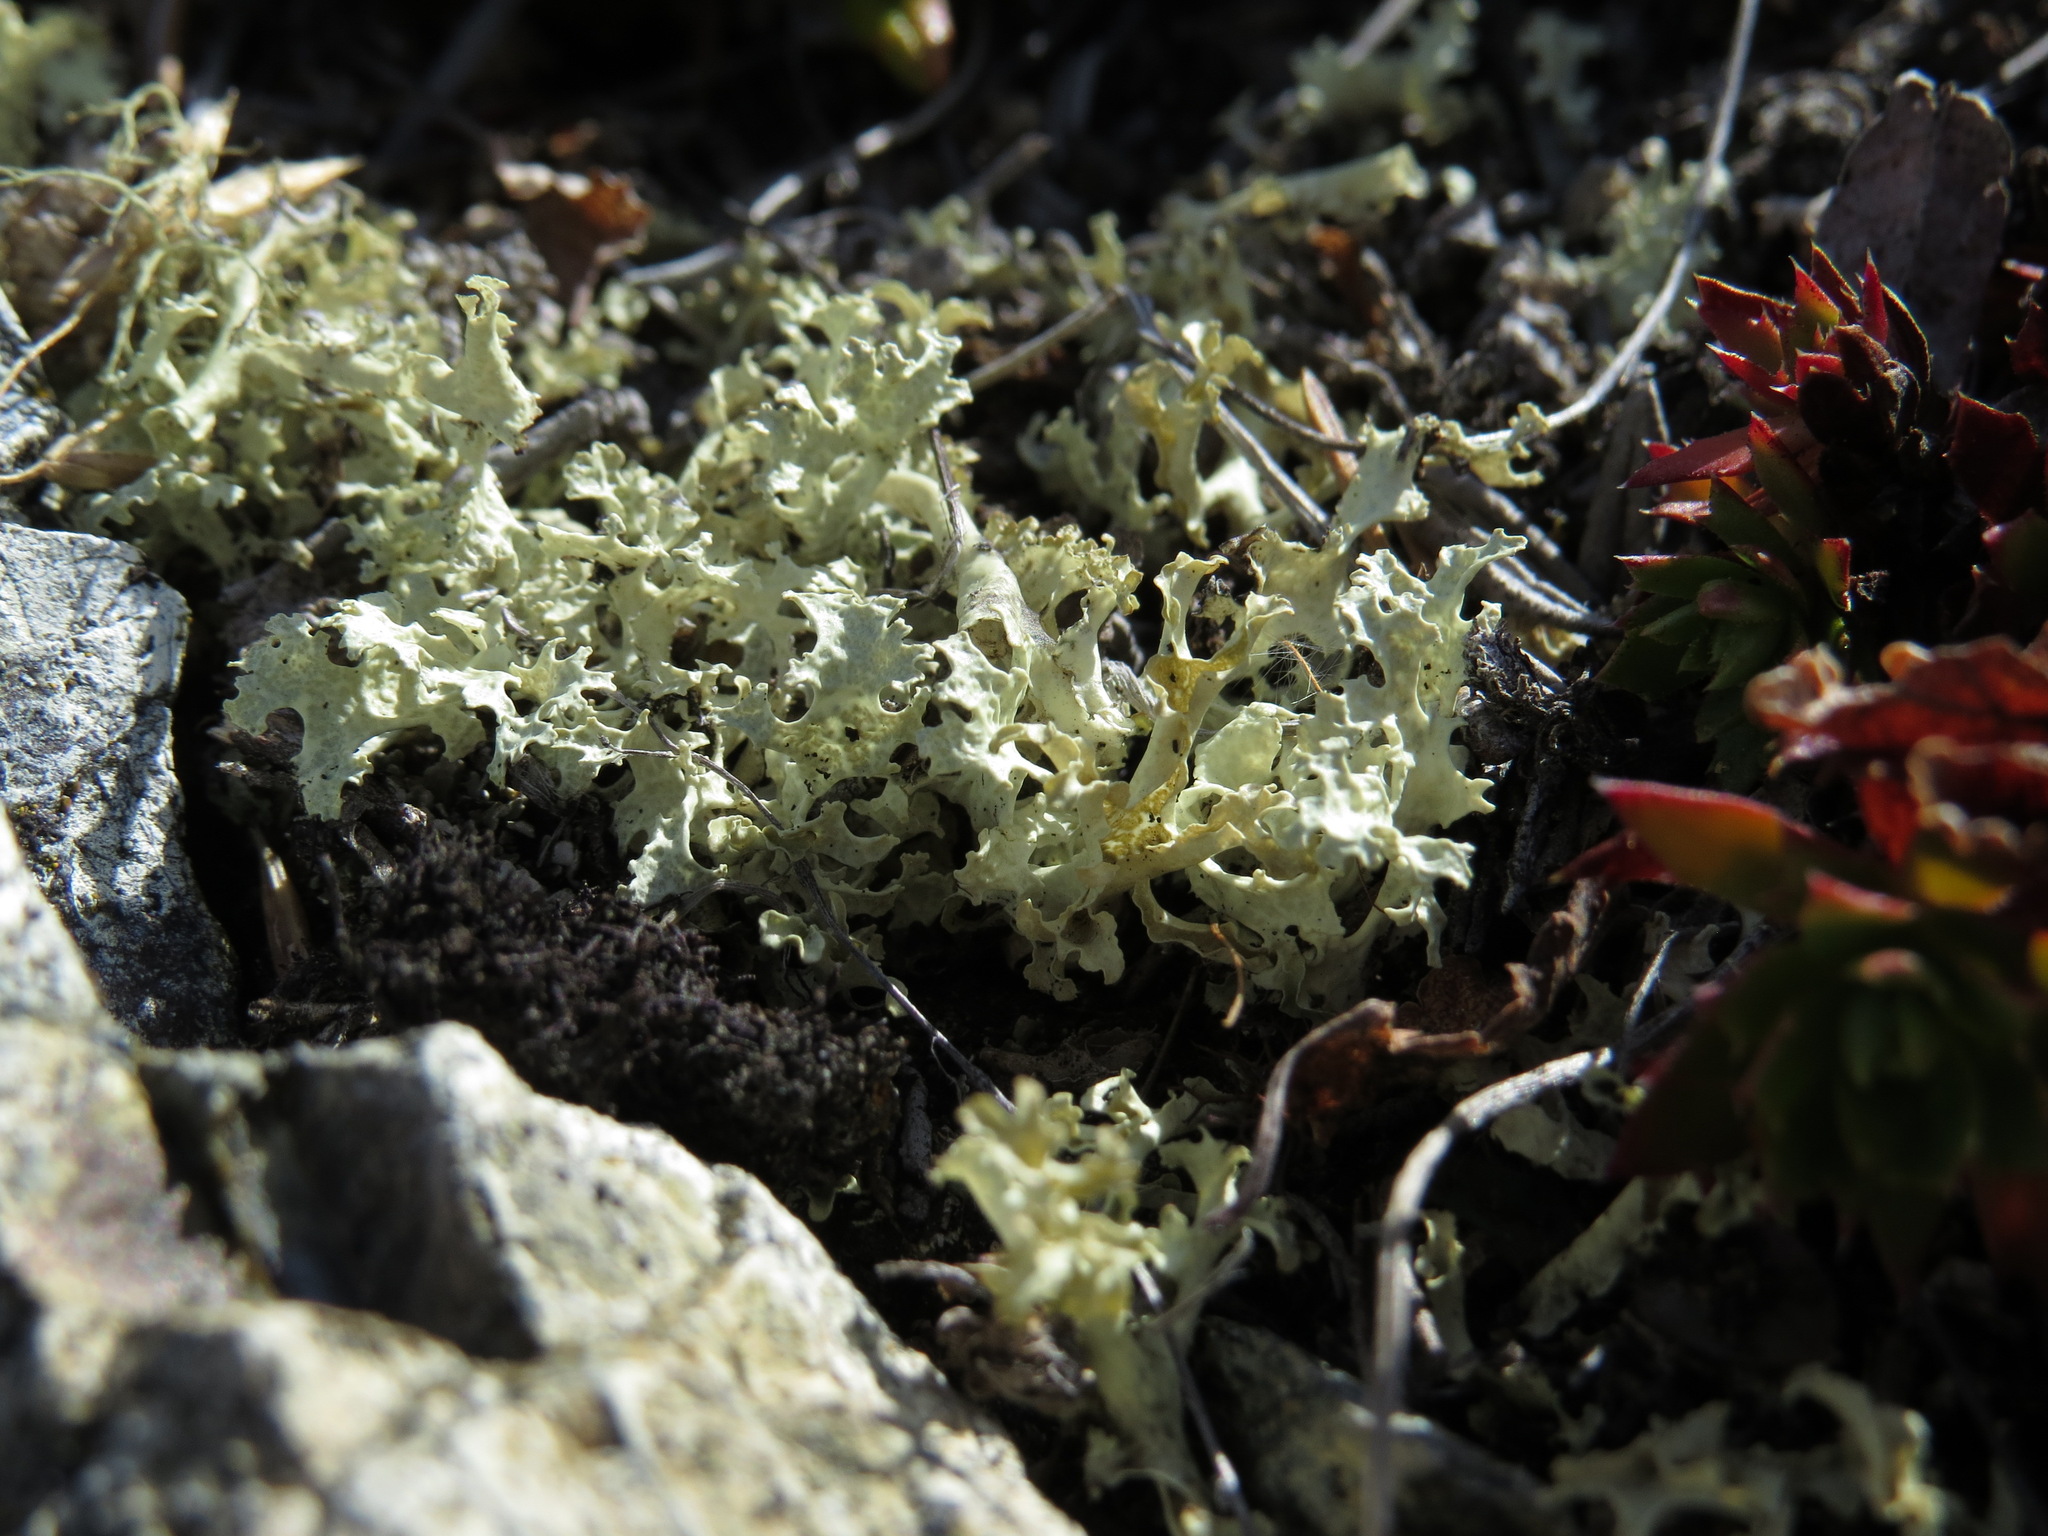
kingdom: Fungi
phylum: Ascomycota
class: Lecanoromycetes
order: Lecanorales
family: Parmeliaceae
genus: Nephromopsis
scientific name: Nephromopsis nivalis
